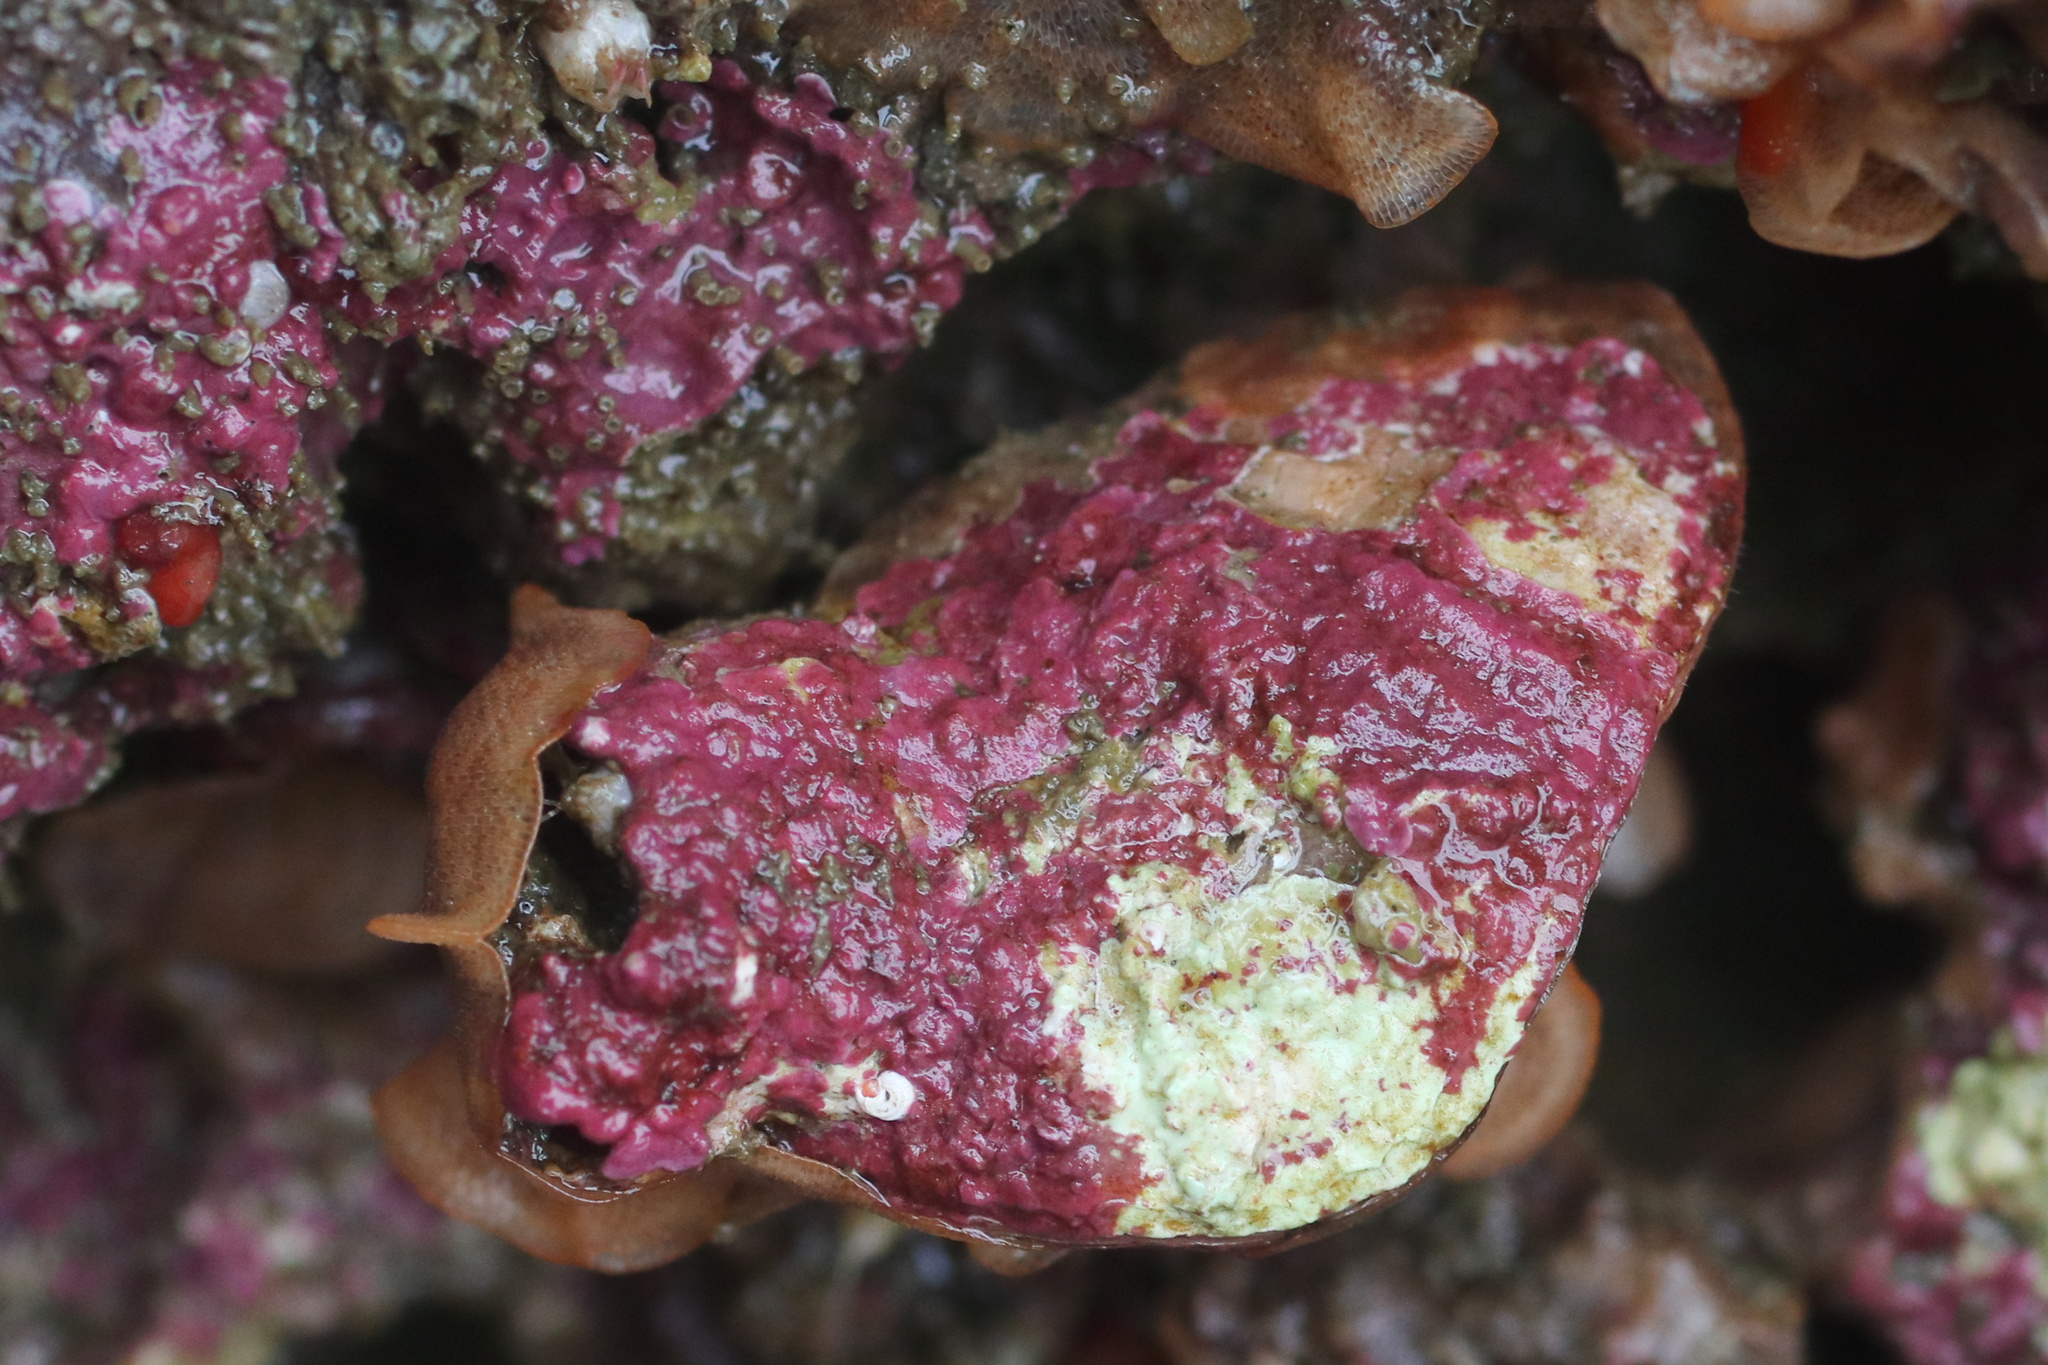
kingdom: Animalia
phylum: Brachiopoda
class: Rhynchonellata
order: Terebratulida
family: Terebrataliidae
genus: Terebratalia
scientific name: Terebratalia transversa
